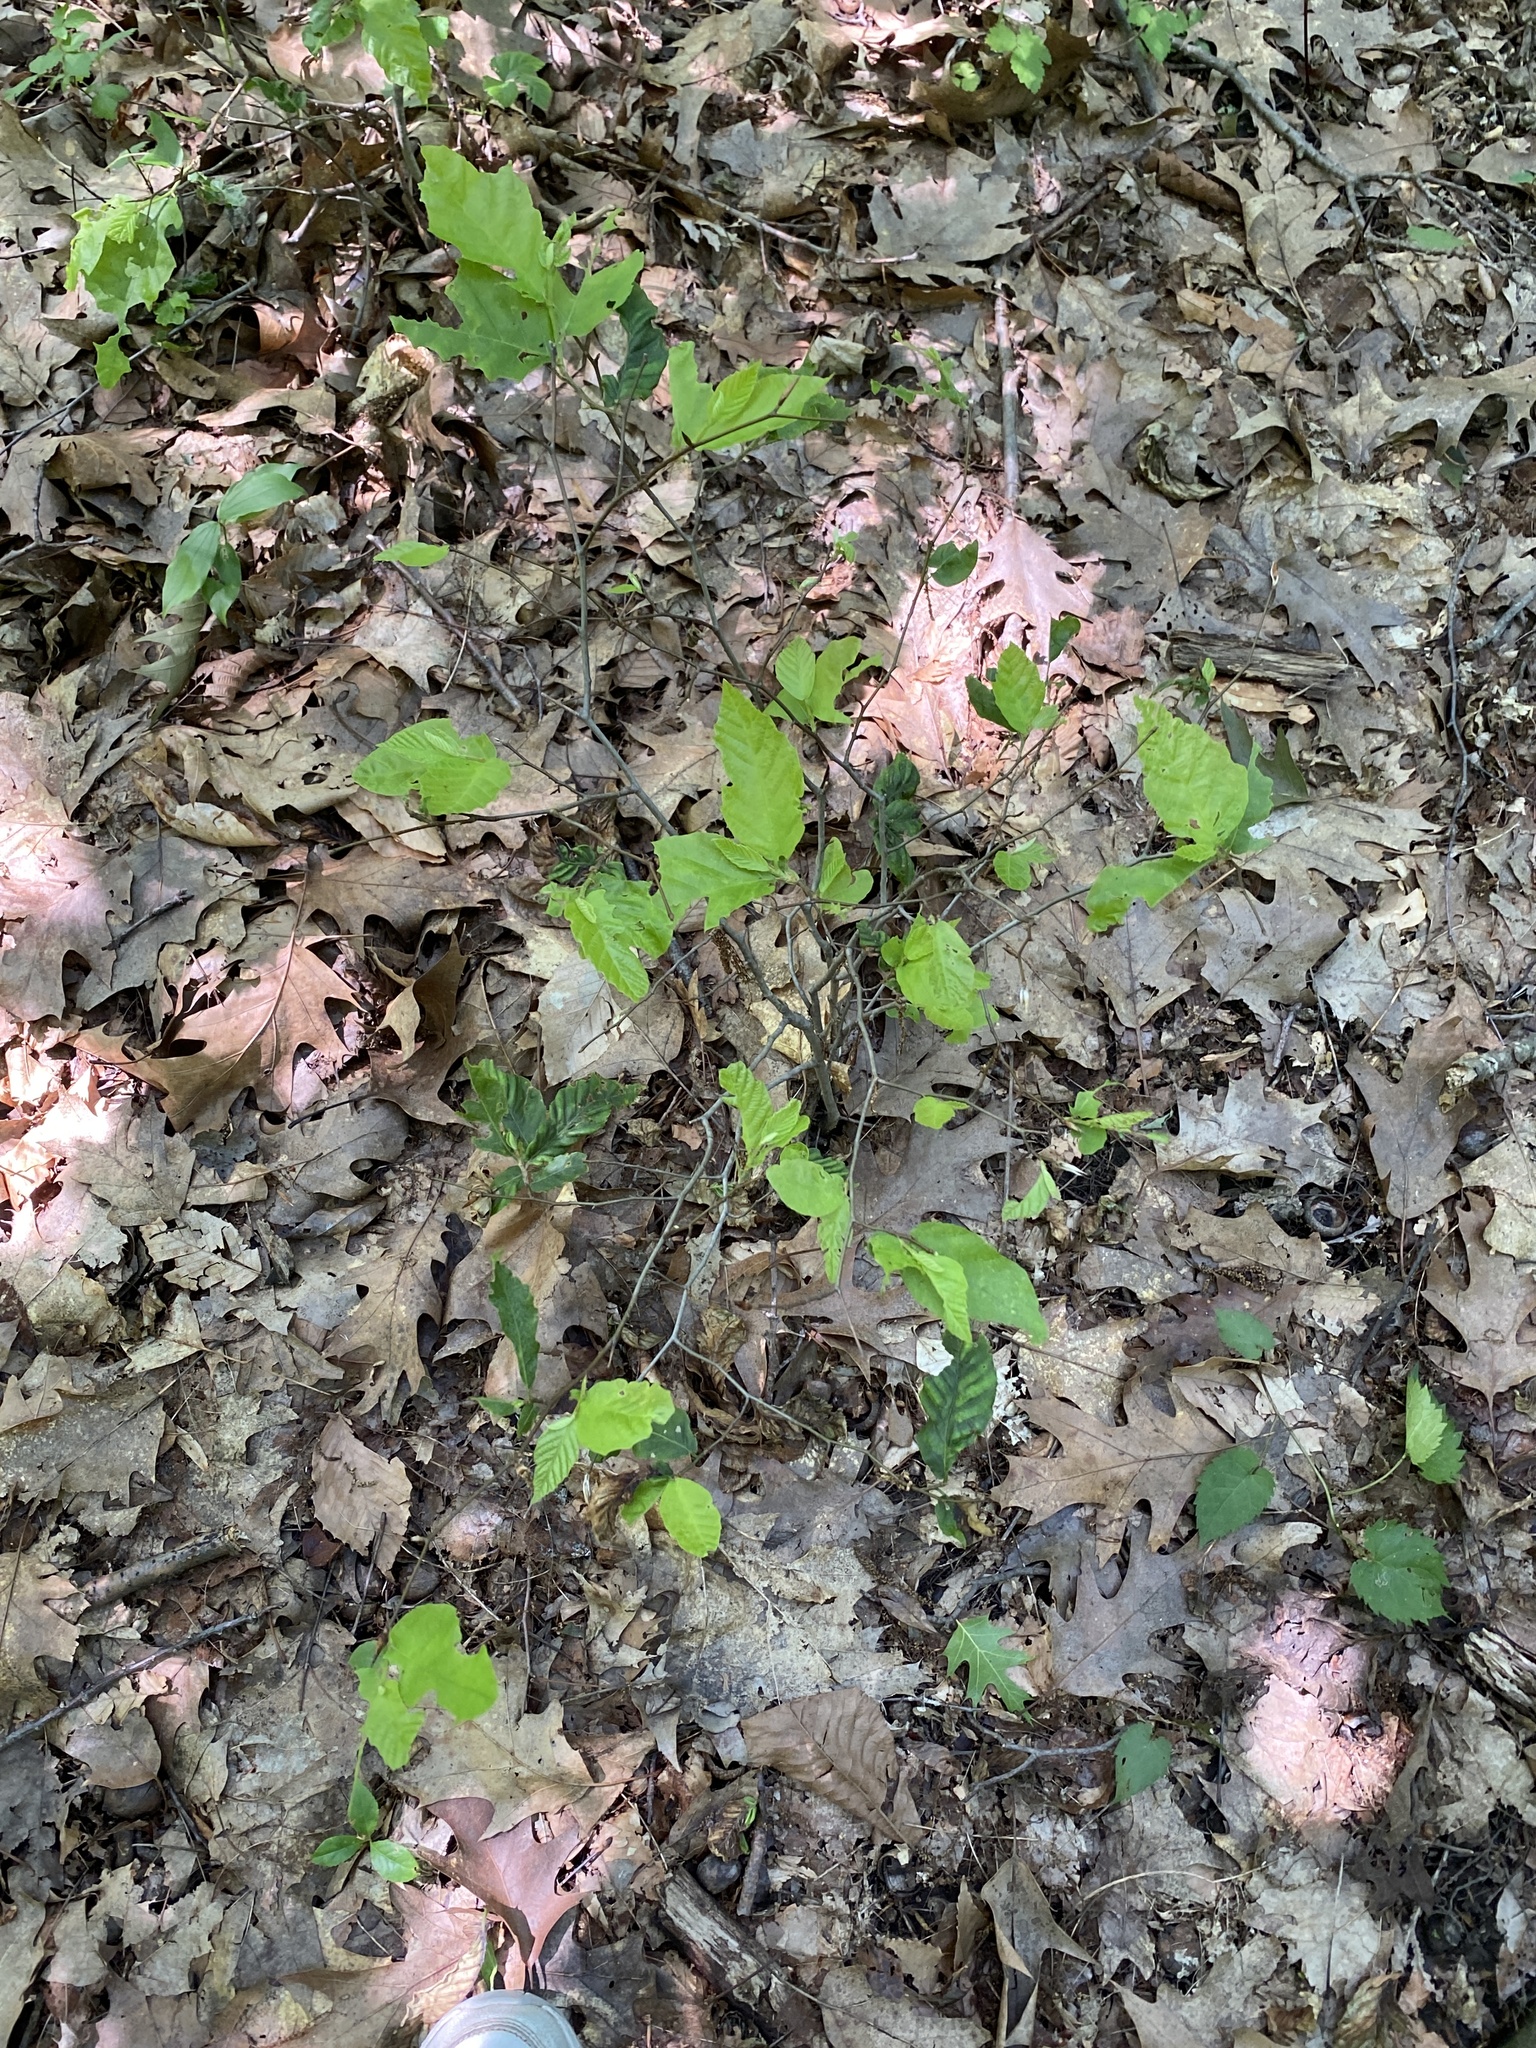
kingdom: Animalia
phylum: Nematoda
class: Chromadorea
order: Rhabditida
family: Anguinidae
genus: Litylenchus
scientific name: Litylenchus crenatae
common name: Beech leaf disease
